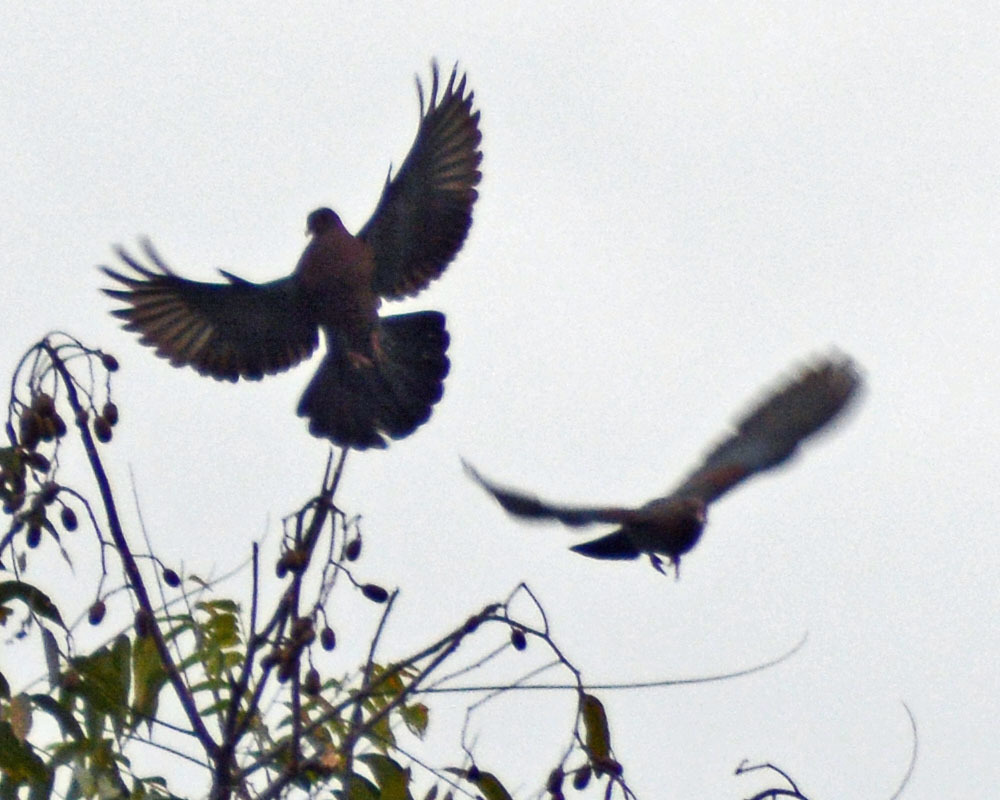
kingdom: Animalia
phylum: Chordata
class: Aves
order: Columbiformes
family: Columbidae
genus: Patagioenas
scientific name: Patagioenas flavirostris
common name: Red-billed pigeon
